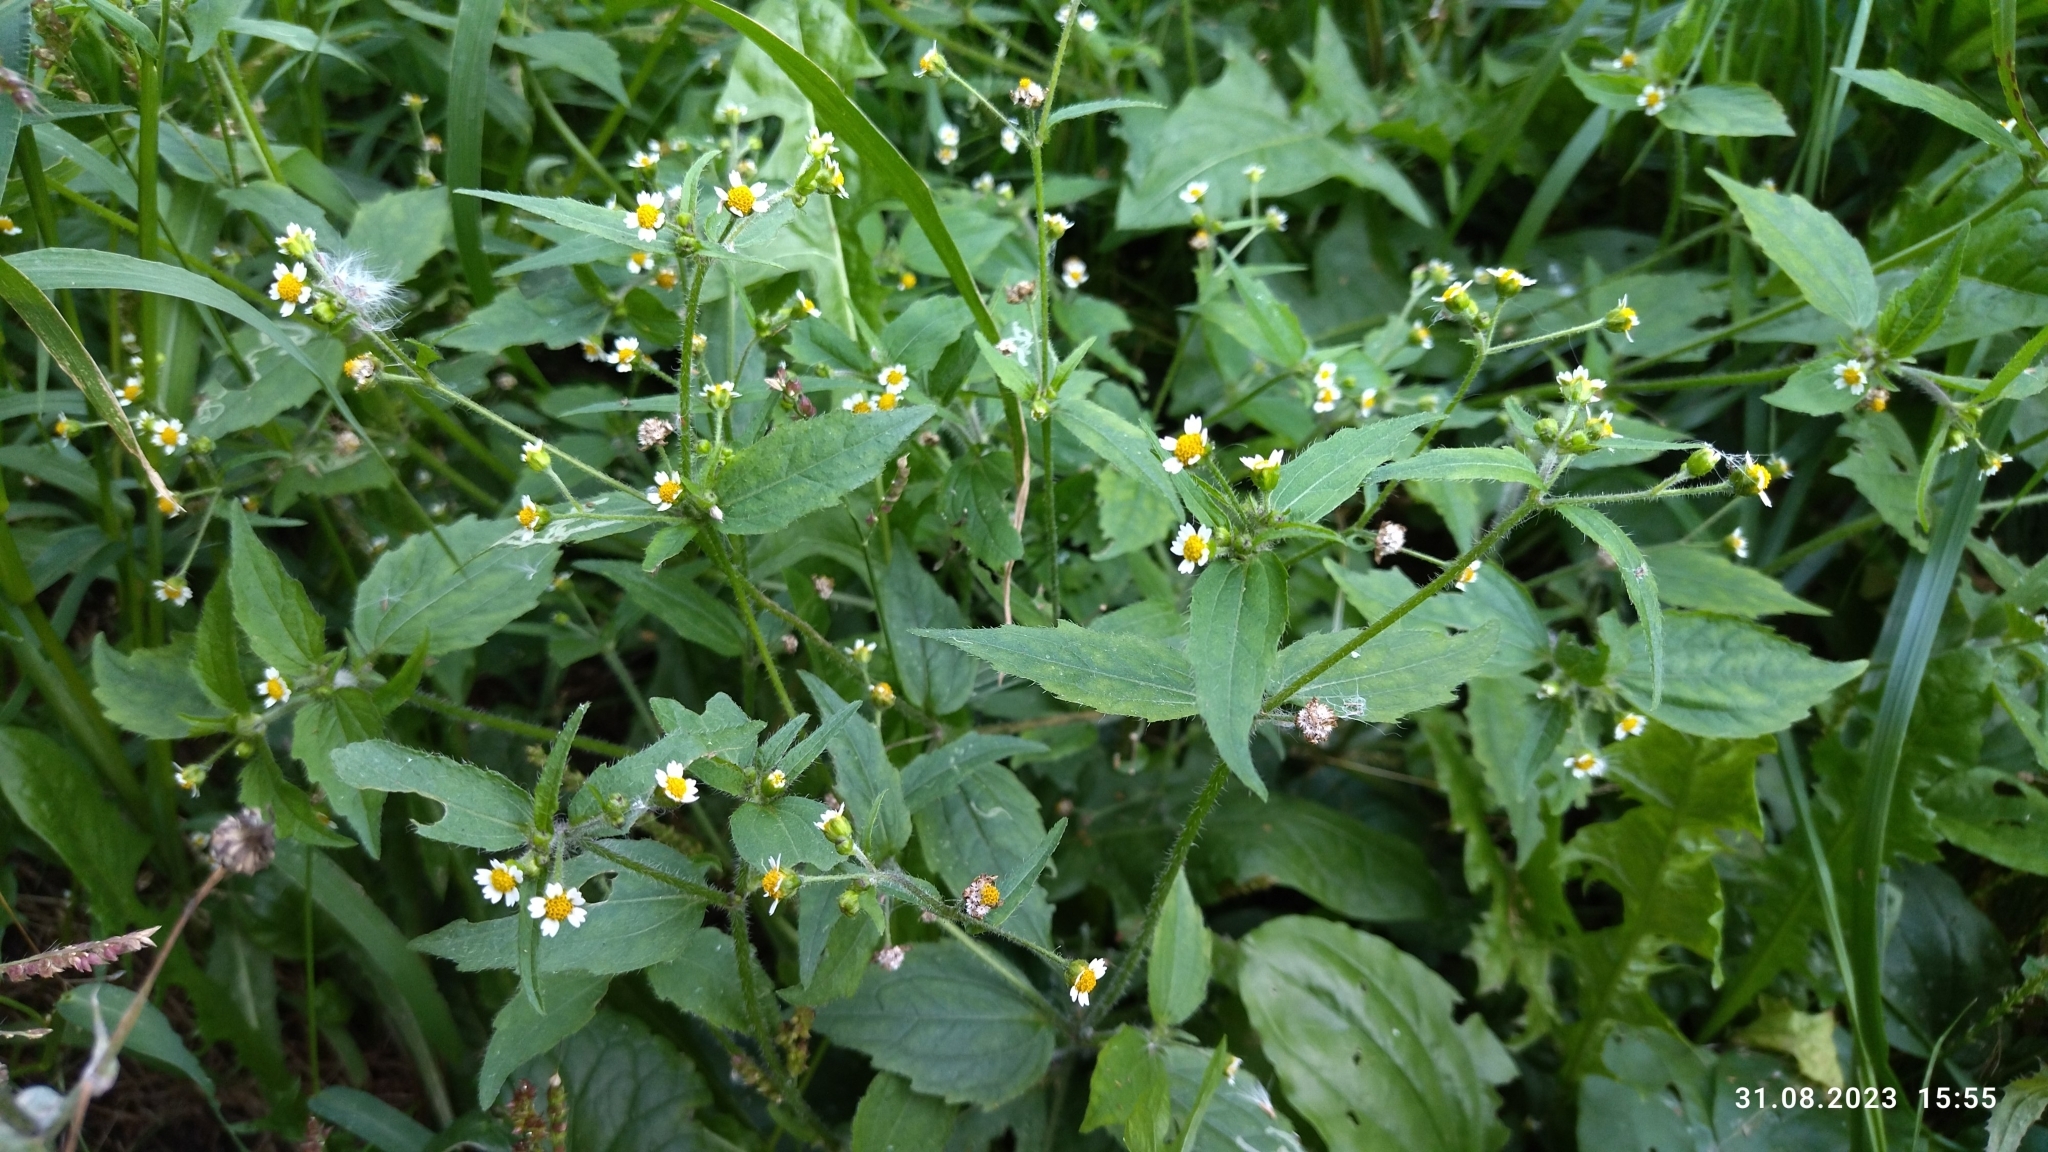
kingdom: Plantae
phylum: Tracheophyta
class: Magnoliopsida
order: Asterales
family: Asteraceae
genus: Galinsoga
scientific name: Galinsoga quadriradiata
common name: Shaggy soldier
